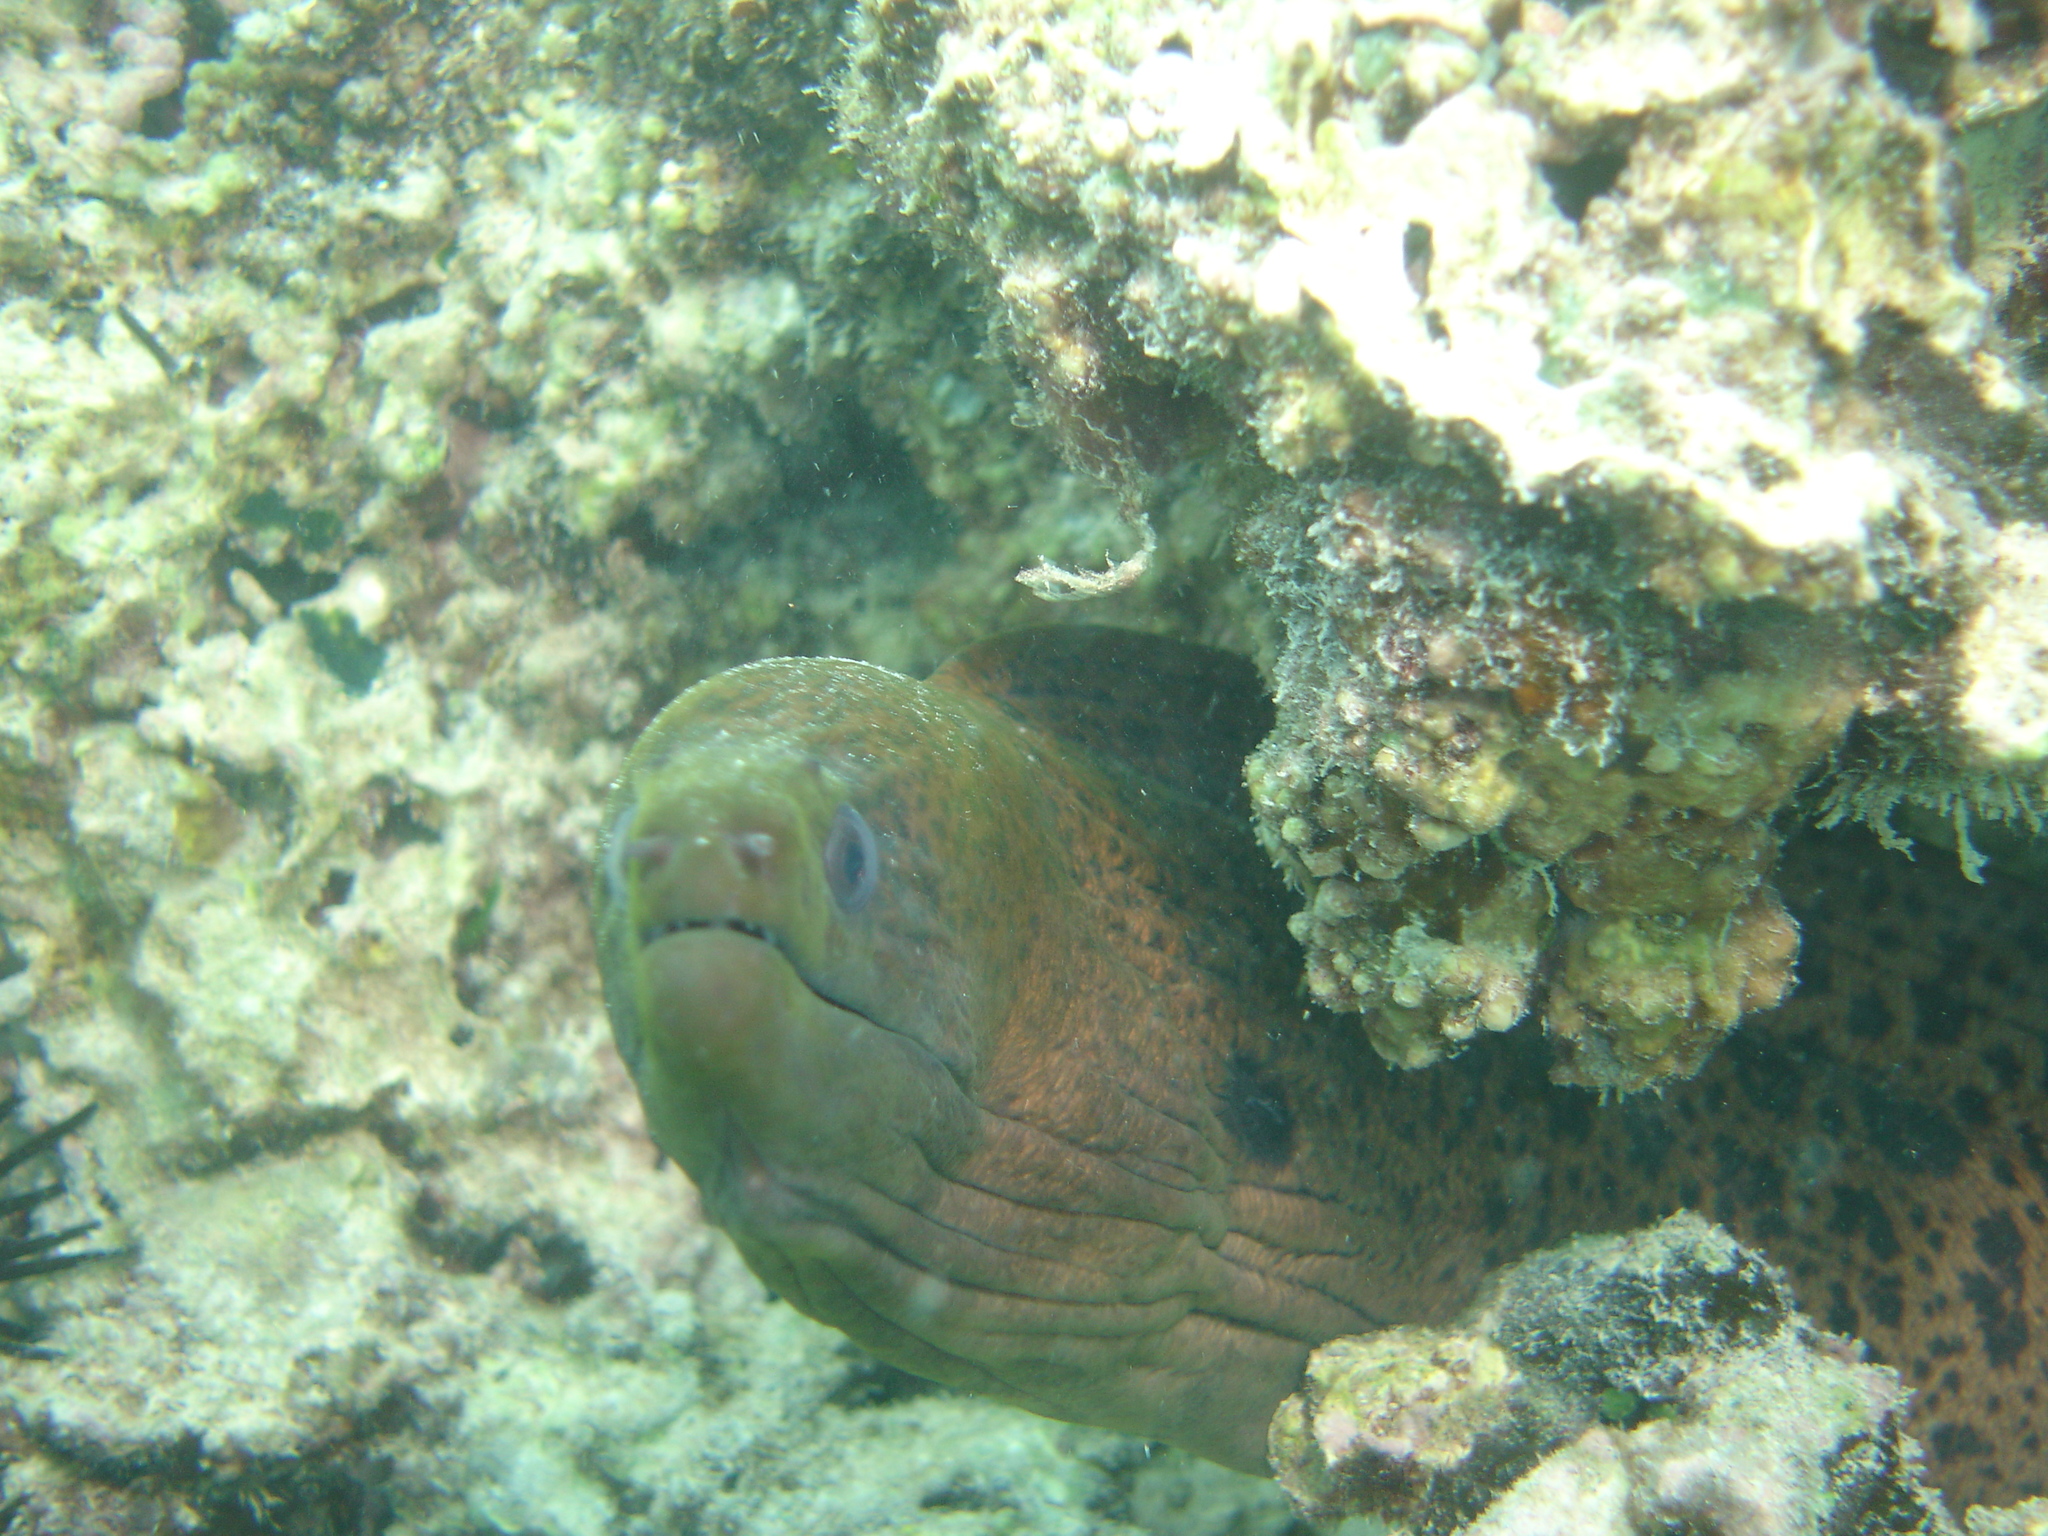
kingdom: Animalia
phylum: Chordata
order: Anguilliformes
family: Muraenidae
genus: Gymnothorax
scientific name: Gymnothorax javanicus
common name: Giant moray
